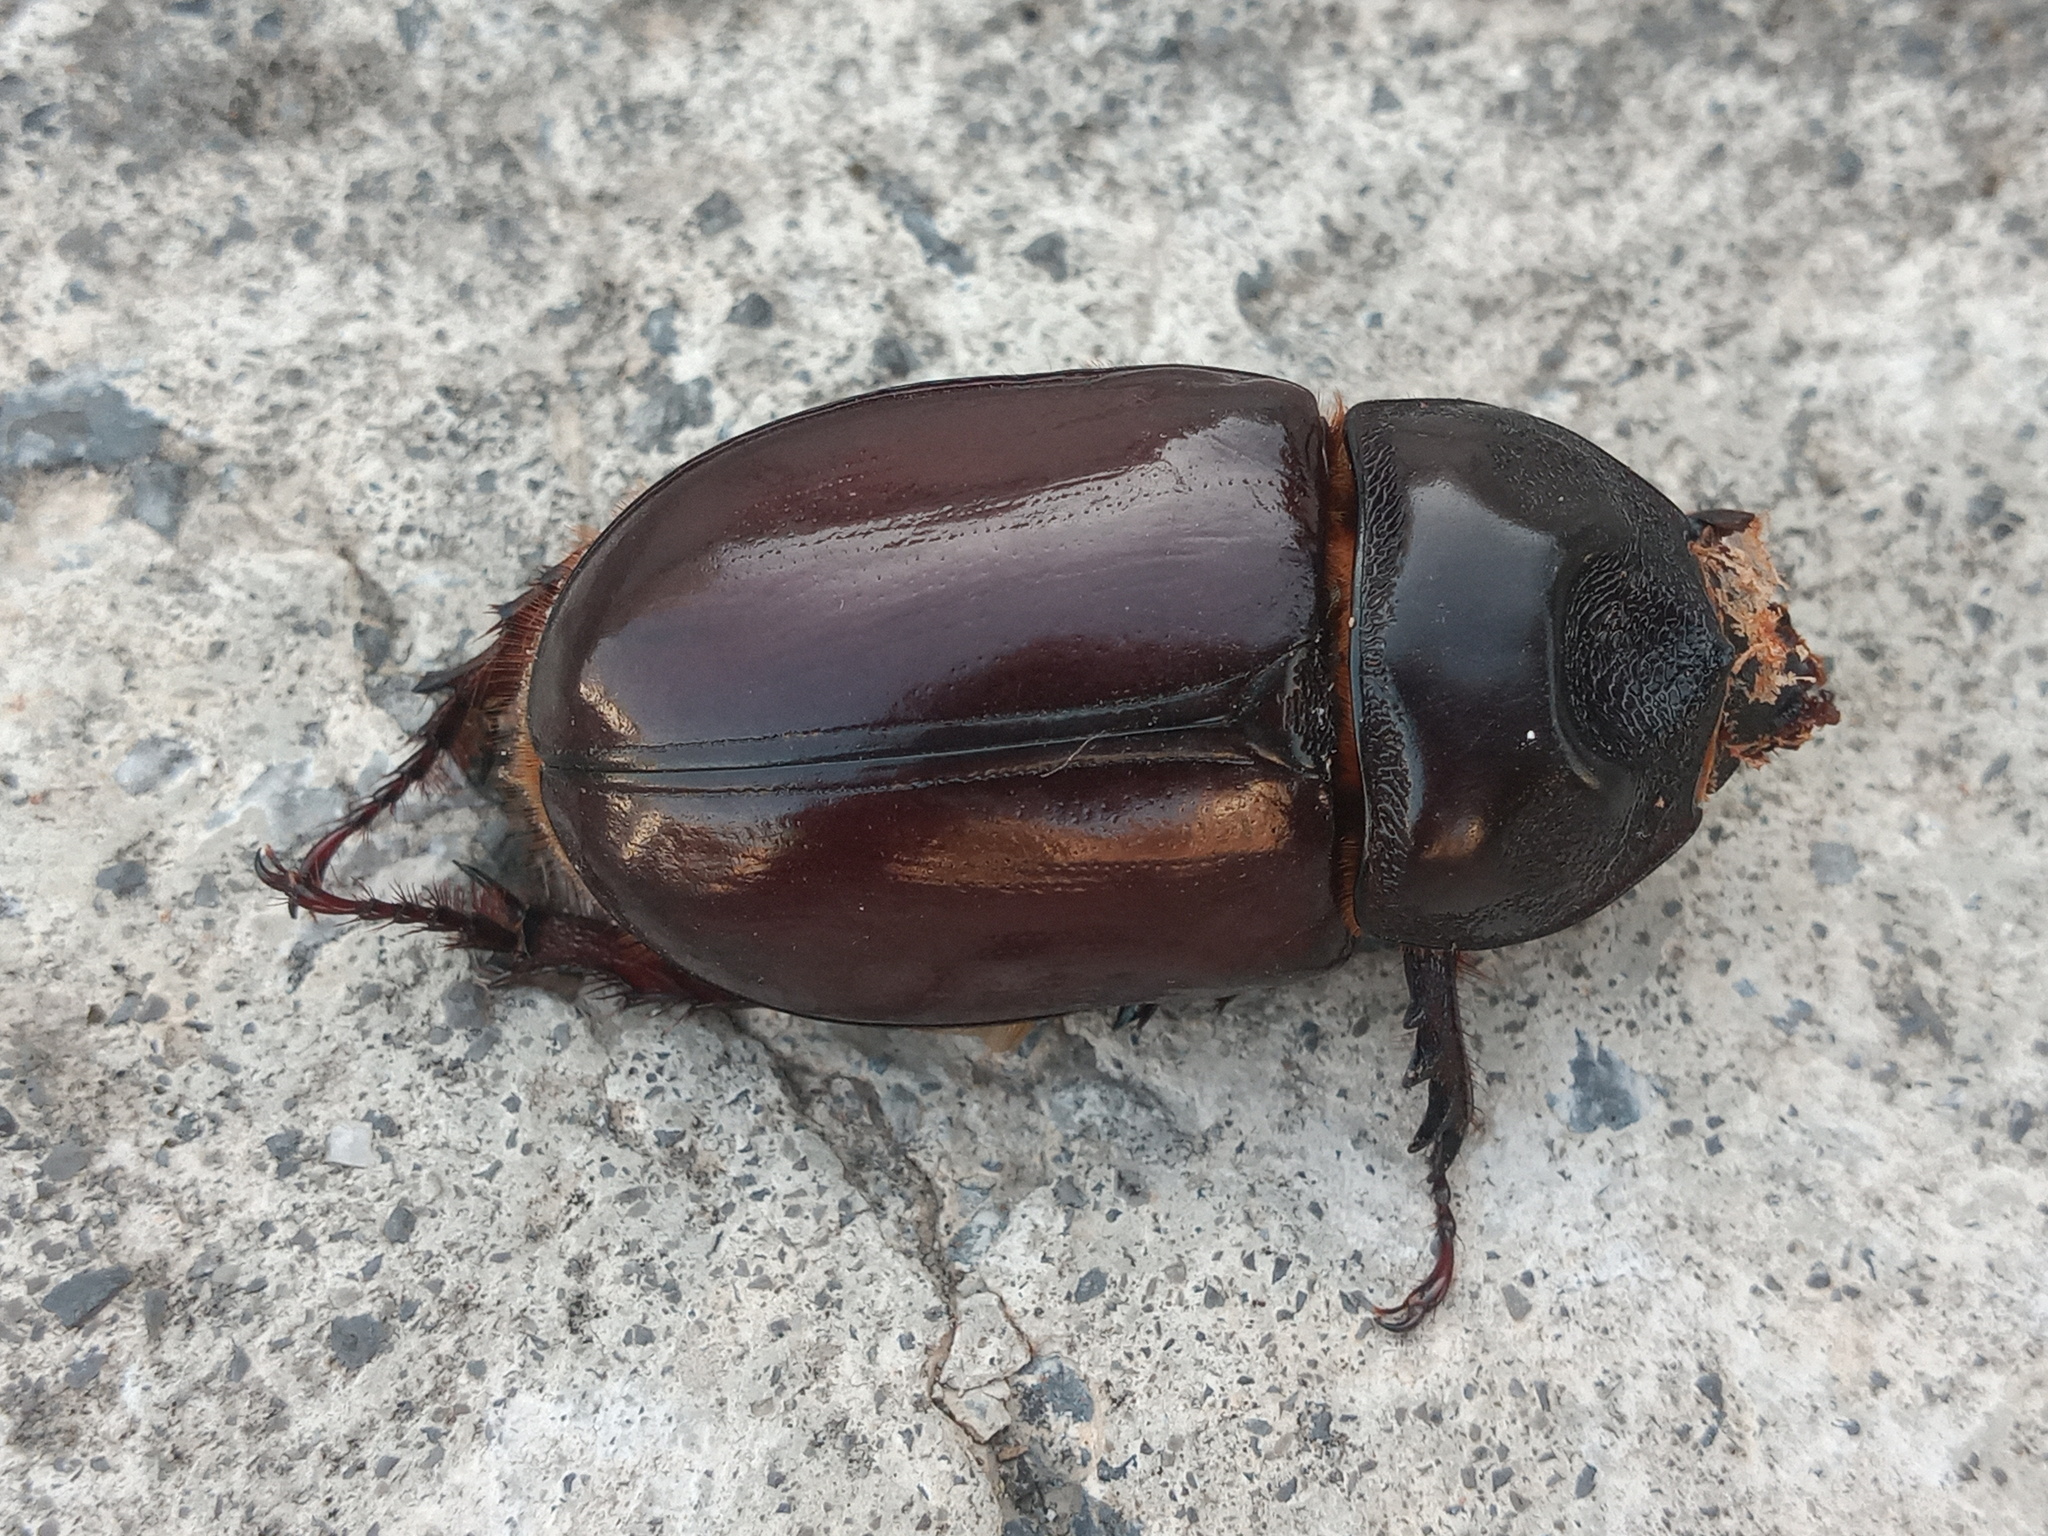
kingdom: Animalia
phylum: Arthropoda
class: Insecta
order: Coleoptera
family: Scarabaeidae
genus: Strategus
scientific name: Strategus aloeus
